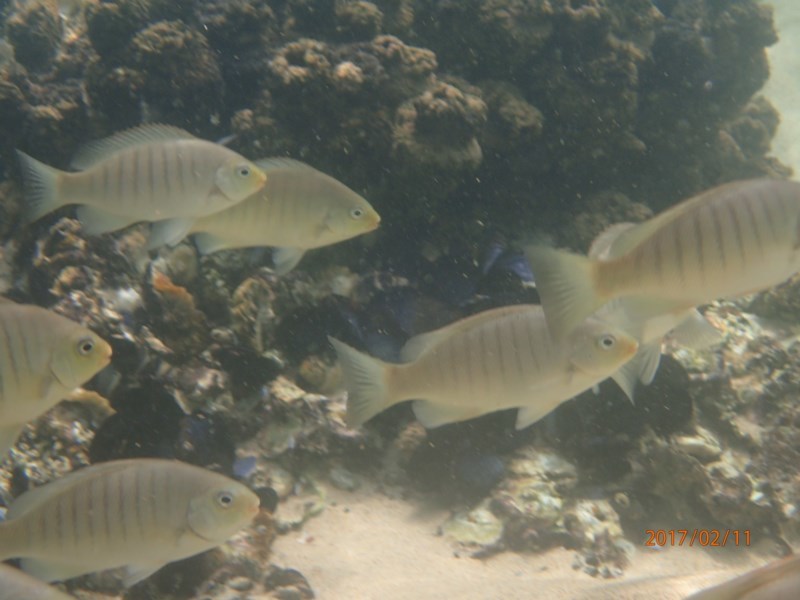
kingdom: Animalia
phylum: Chordata
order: Perciformes
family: Kyphosidae
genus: Girella
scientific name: Girella tricuspidata
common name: Parore
